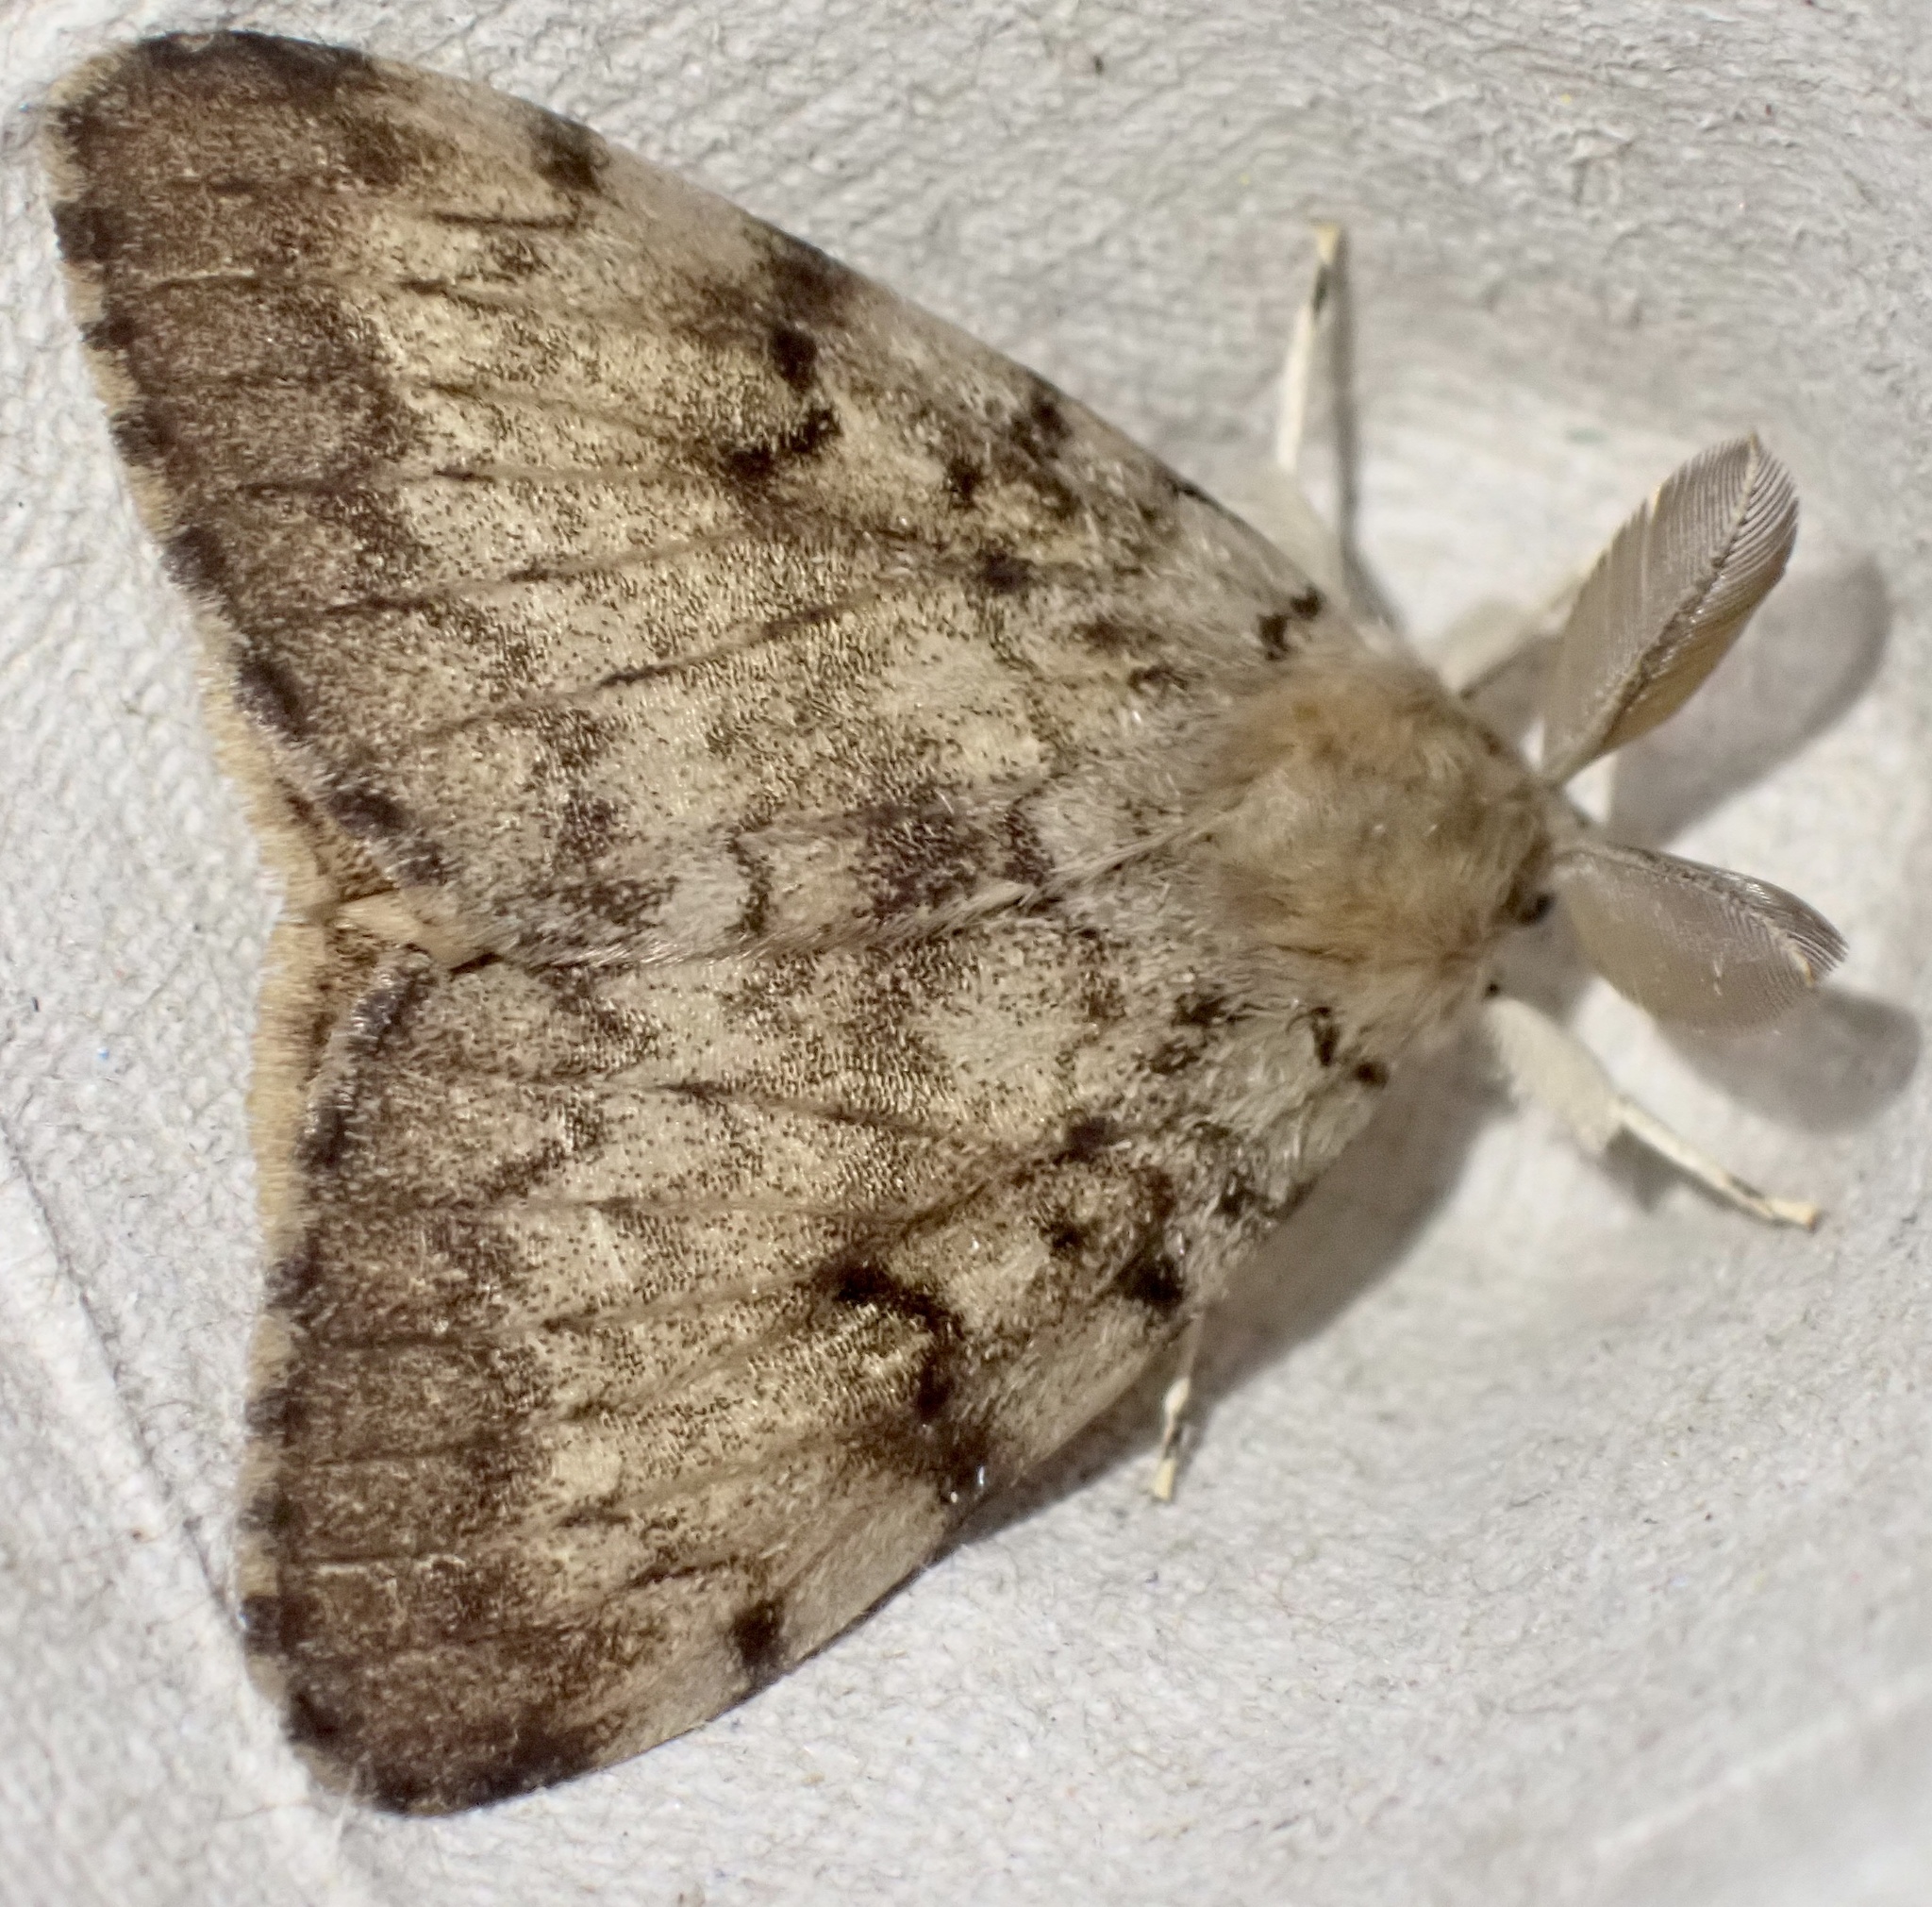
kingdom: Animalia
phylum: Arthropoda
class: Insecta
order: Lepidoptera
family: Erebidae
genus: Lymantria
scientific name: Lymantria dispar
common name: Gypsy moth
